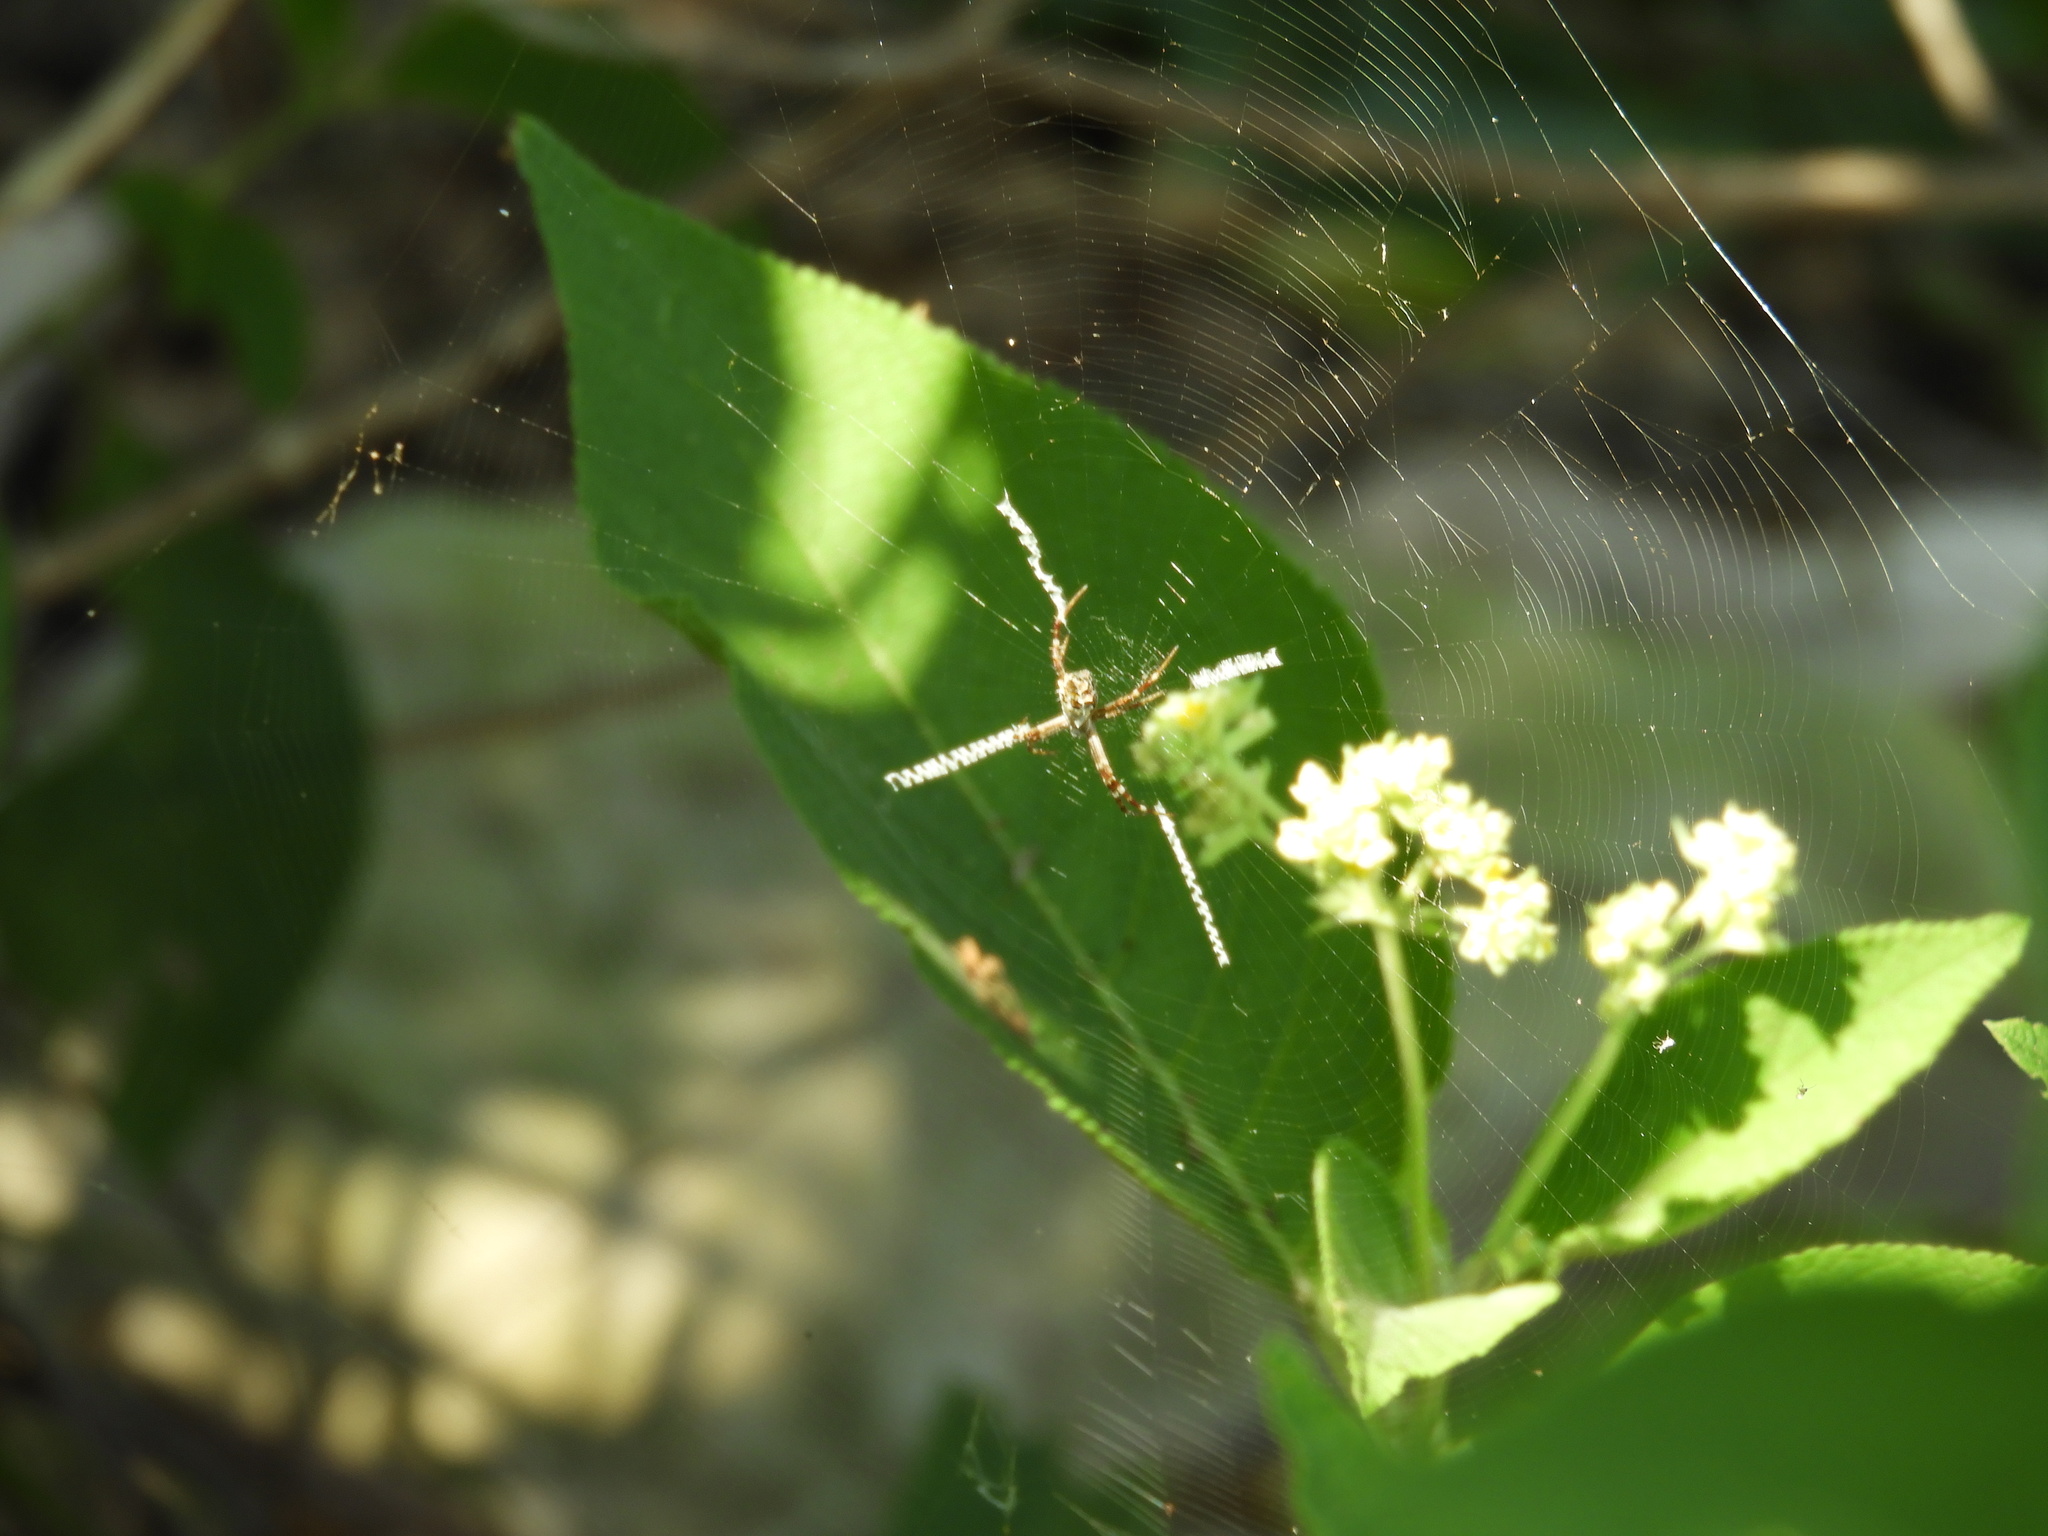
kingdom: Animalia
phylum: Arthropoda
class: Arachnida
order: Araneae
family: Araneidae
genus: Argiope
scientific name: Argiope argentata
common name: Orb weavers
